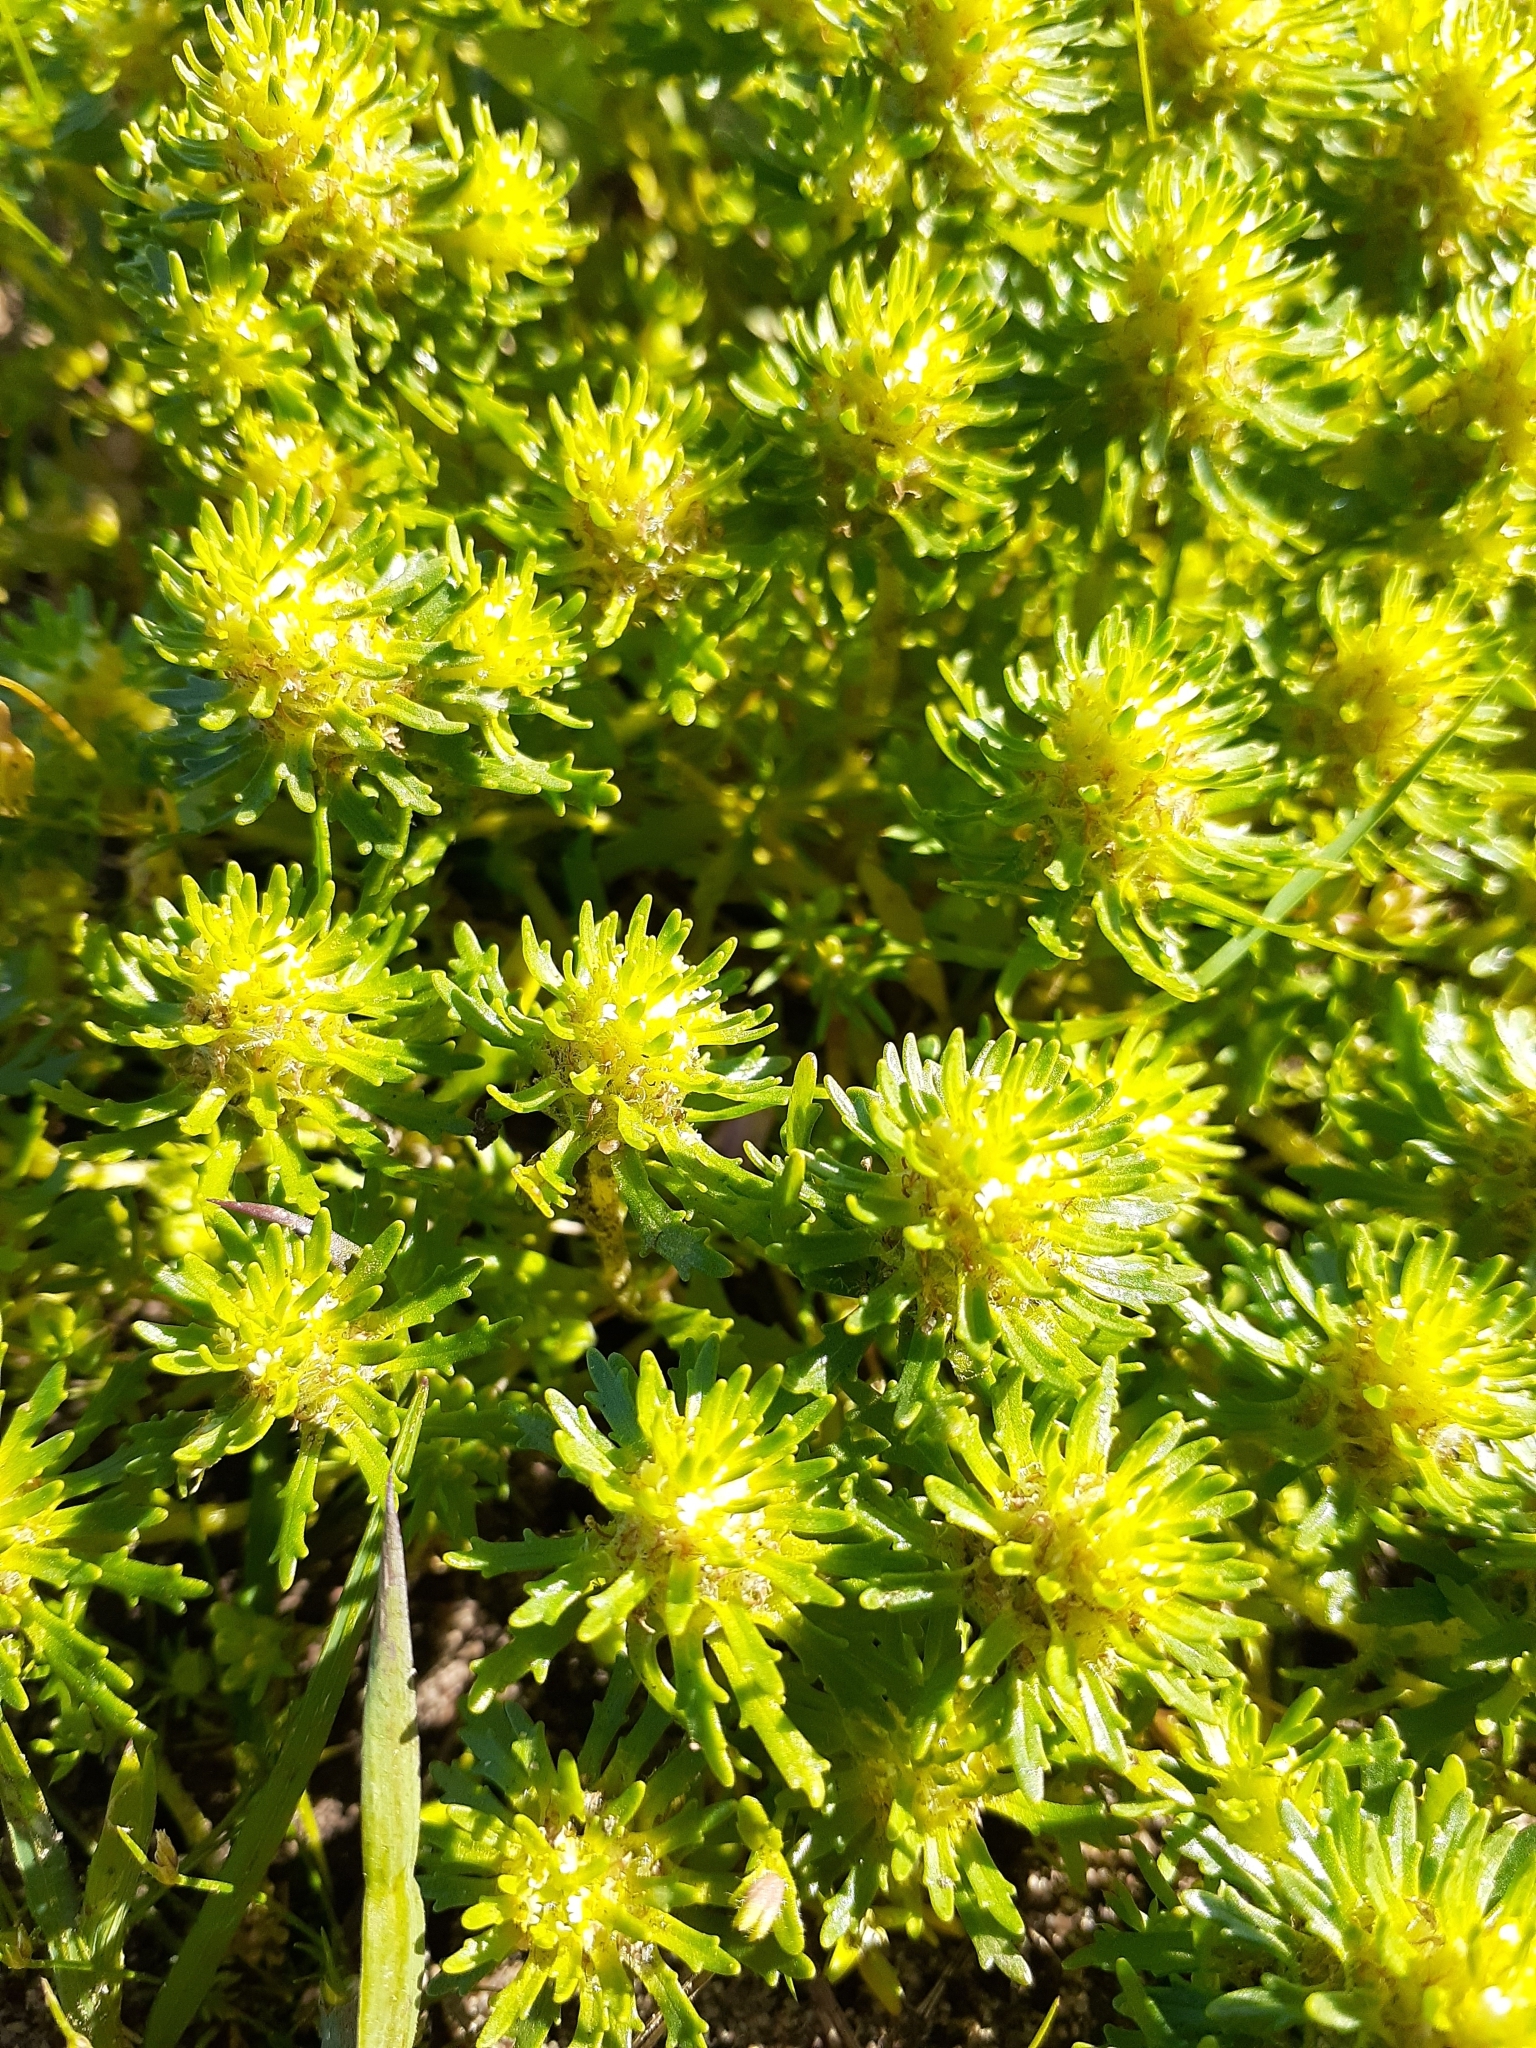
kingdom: Plantae
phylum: Tracheophyta
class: Magnoliopsida
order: Lamiales
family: Scrophulariaceae
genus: Dischisma
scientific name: Dischisma capitatum
